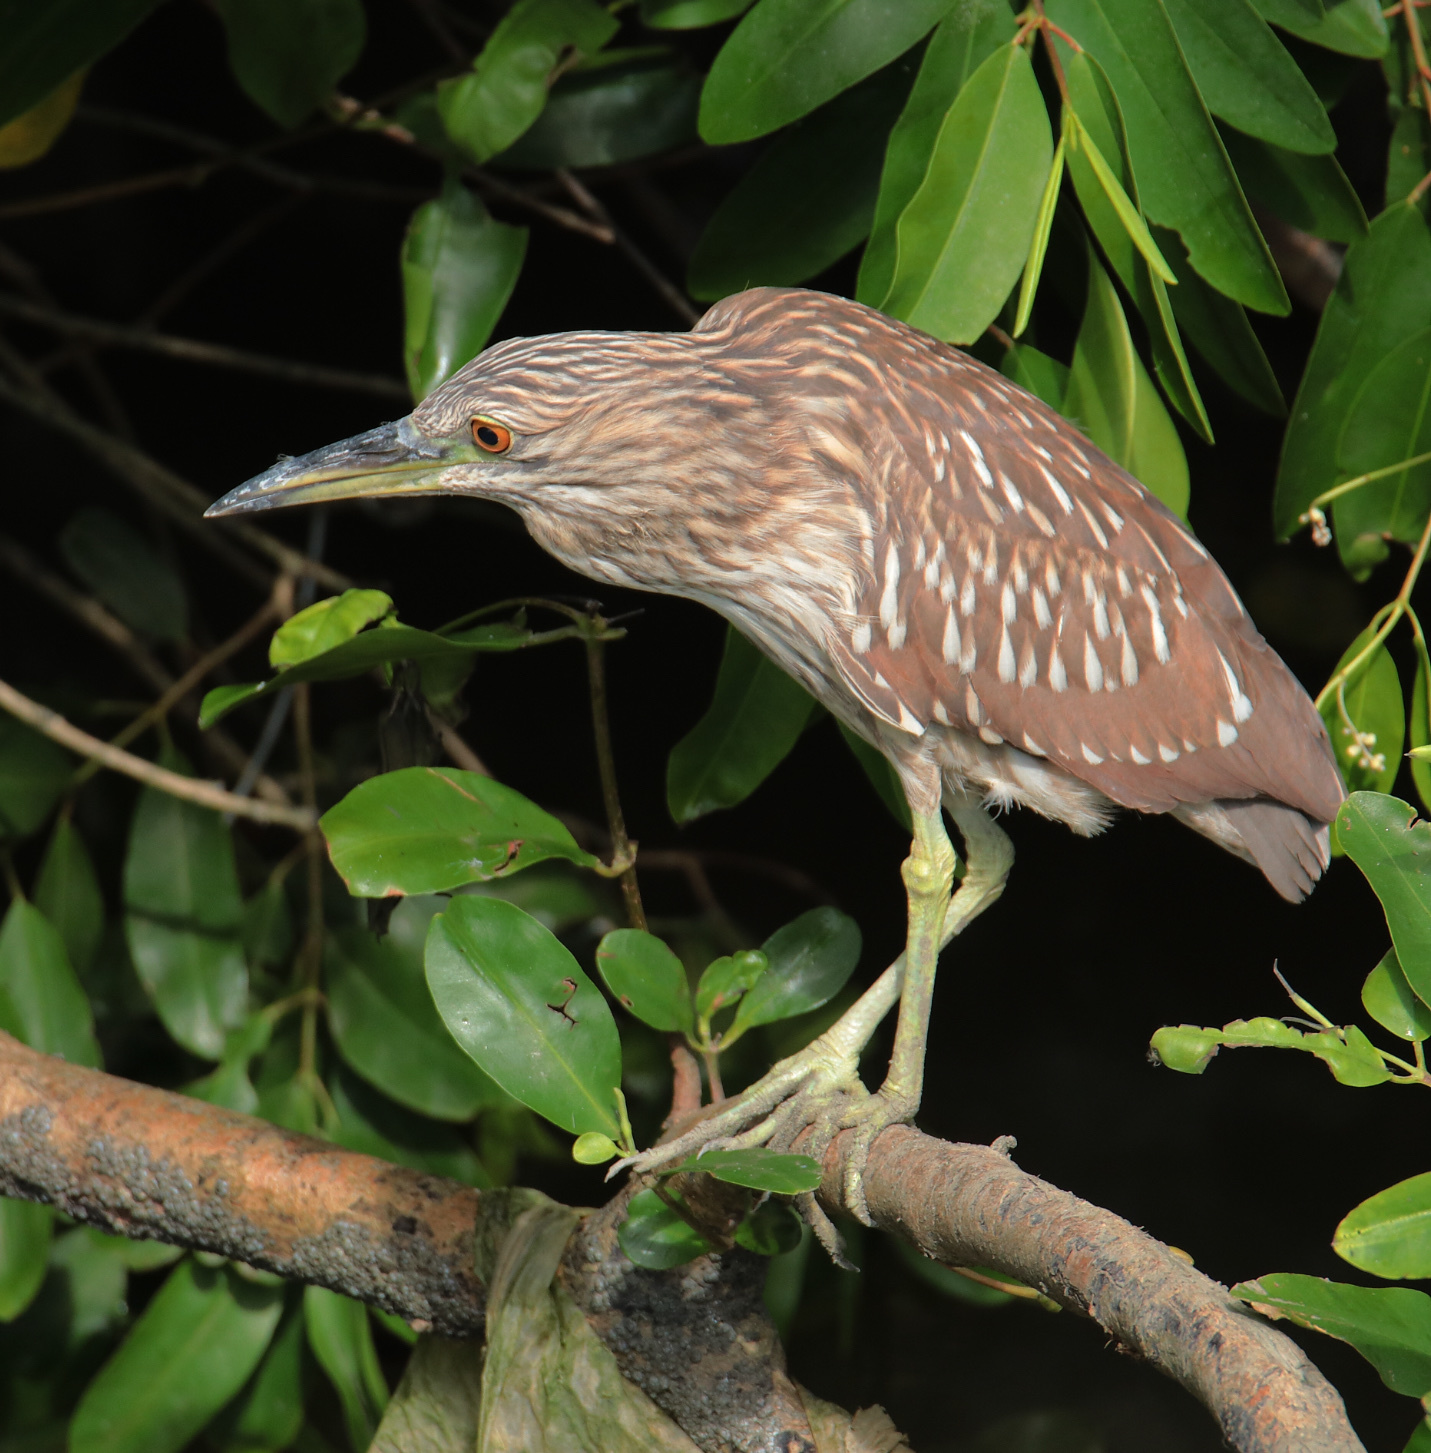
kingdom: Animalia
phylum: Chordata
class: Aves
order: Pelecaniformes
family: Ardeidae
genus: Nycticorax
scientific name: Nycticorax nycticorax
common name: Black-crowned night heron
